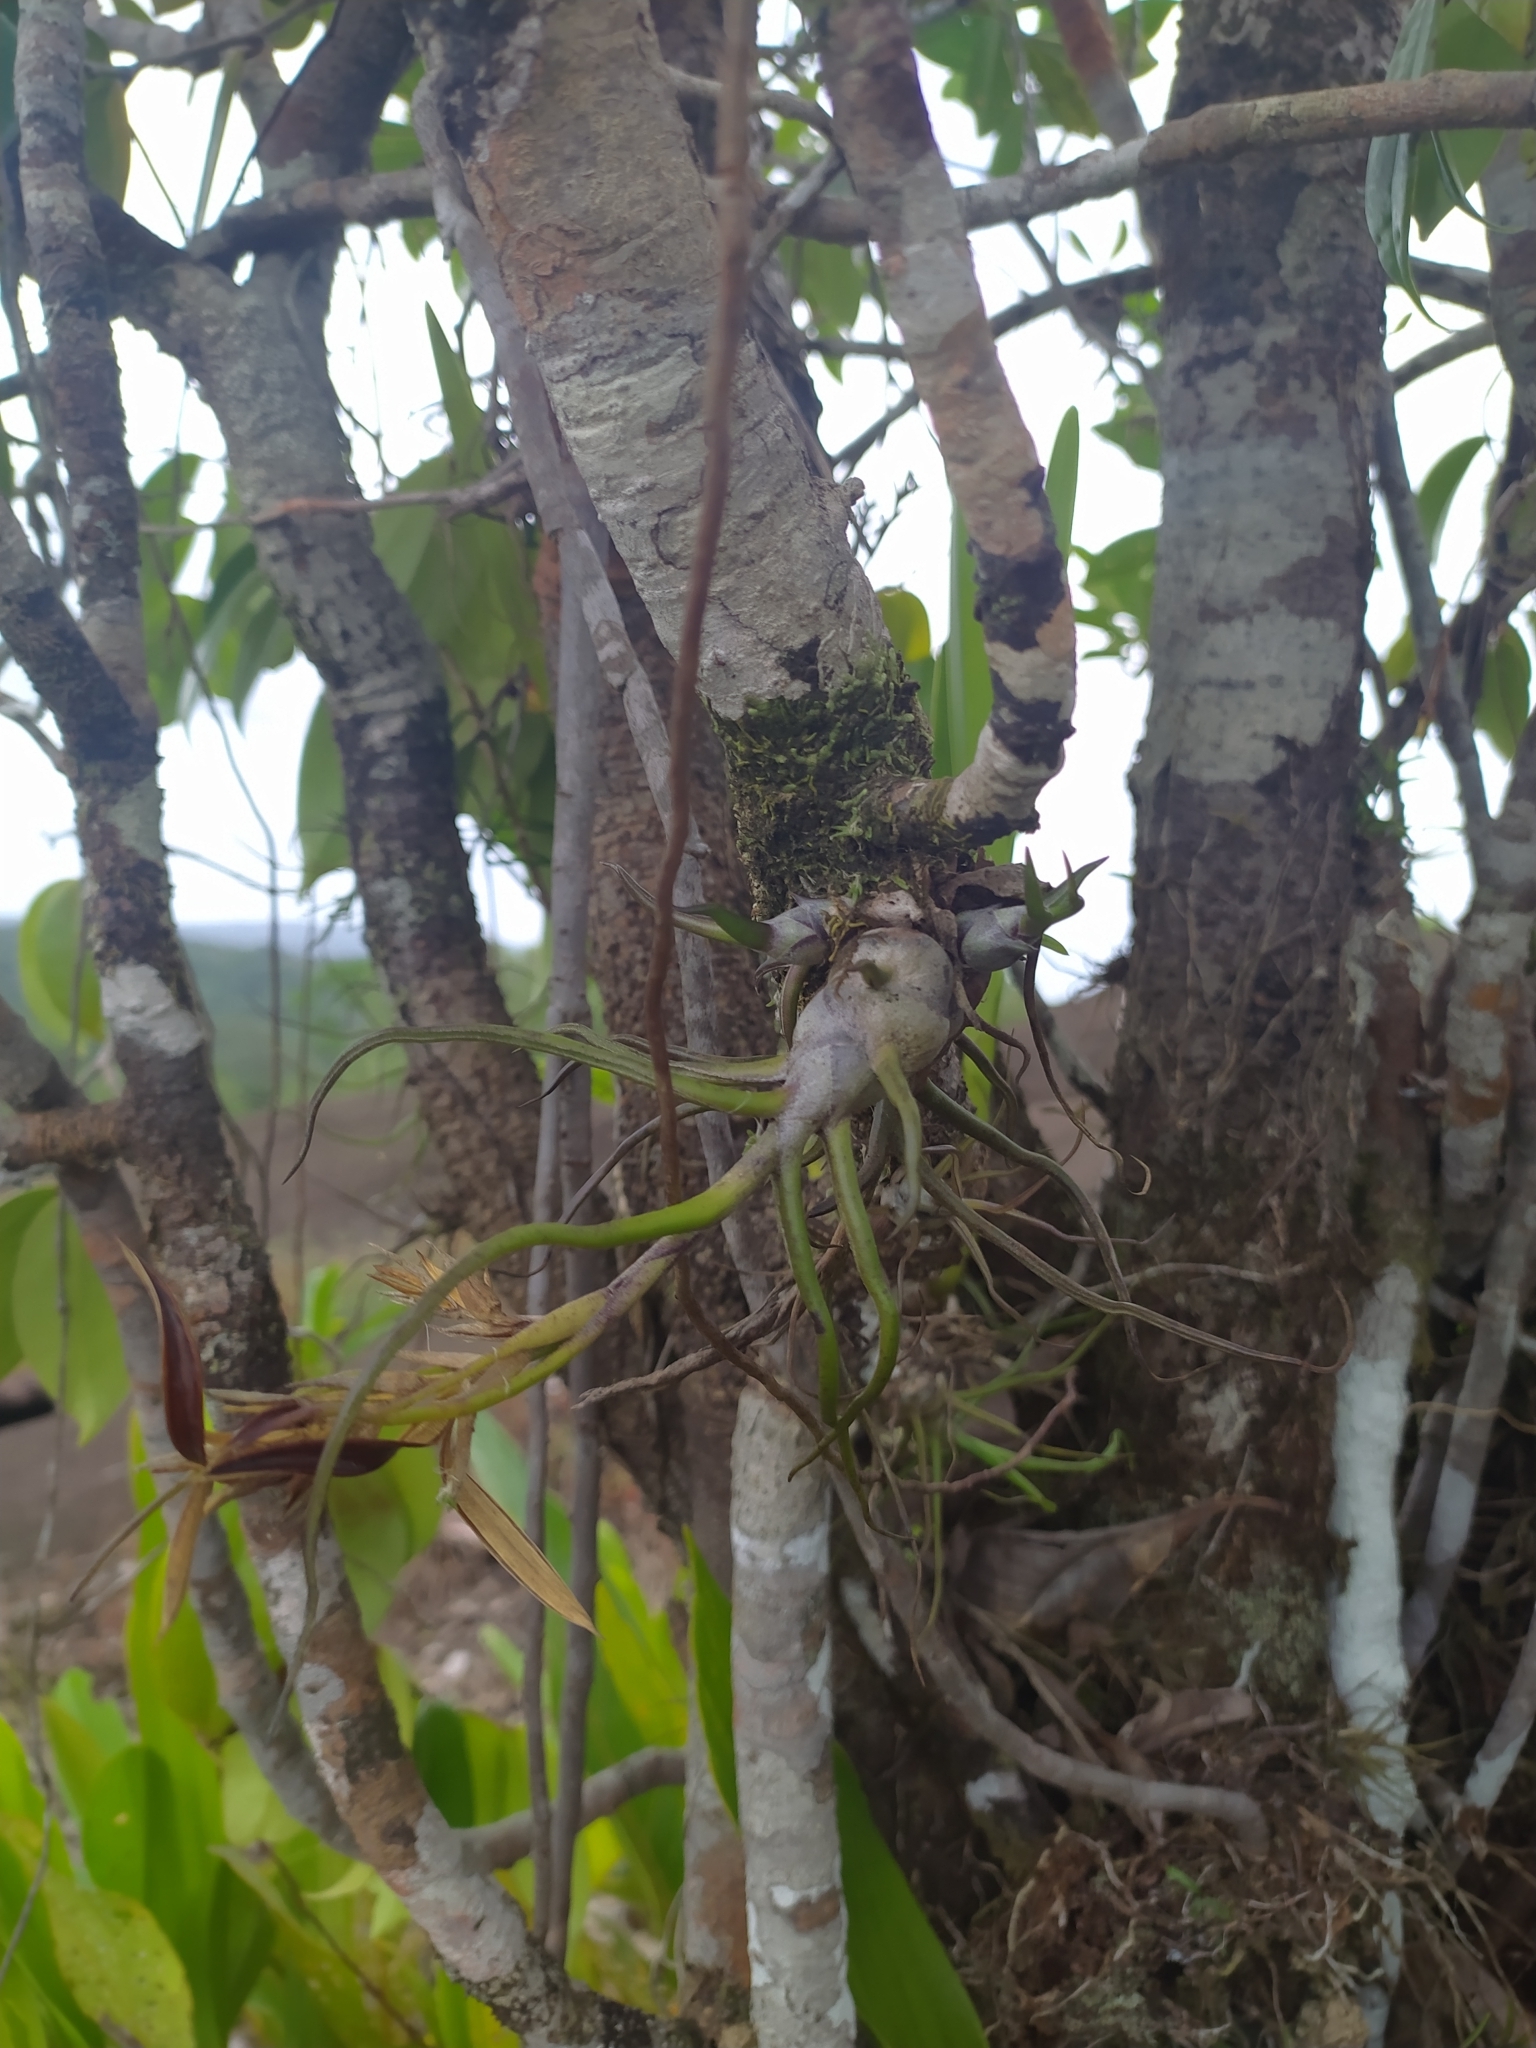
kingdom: Plantae
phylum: Tracheophyta
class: Liliopsida
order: Poales
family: Bromeliaceae
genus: Tillandsia
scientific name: Tillandsia bulbosa
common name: Bulbous airplant
